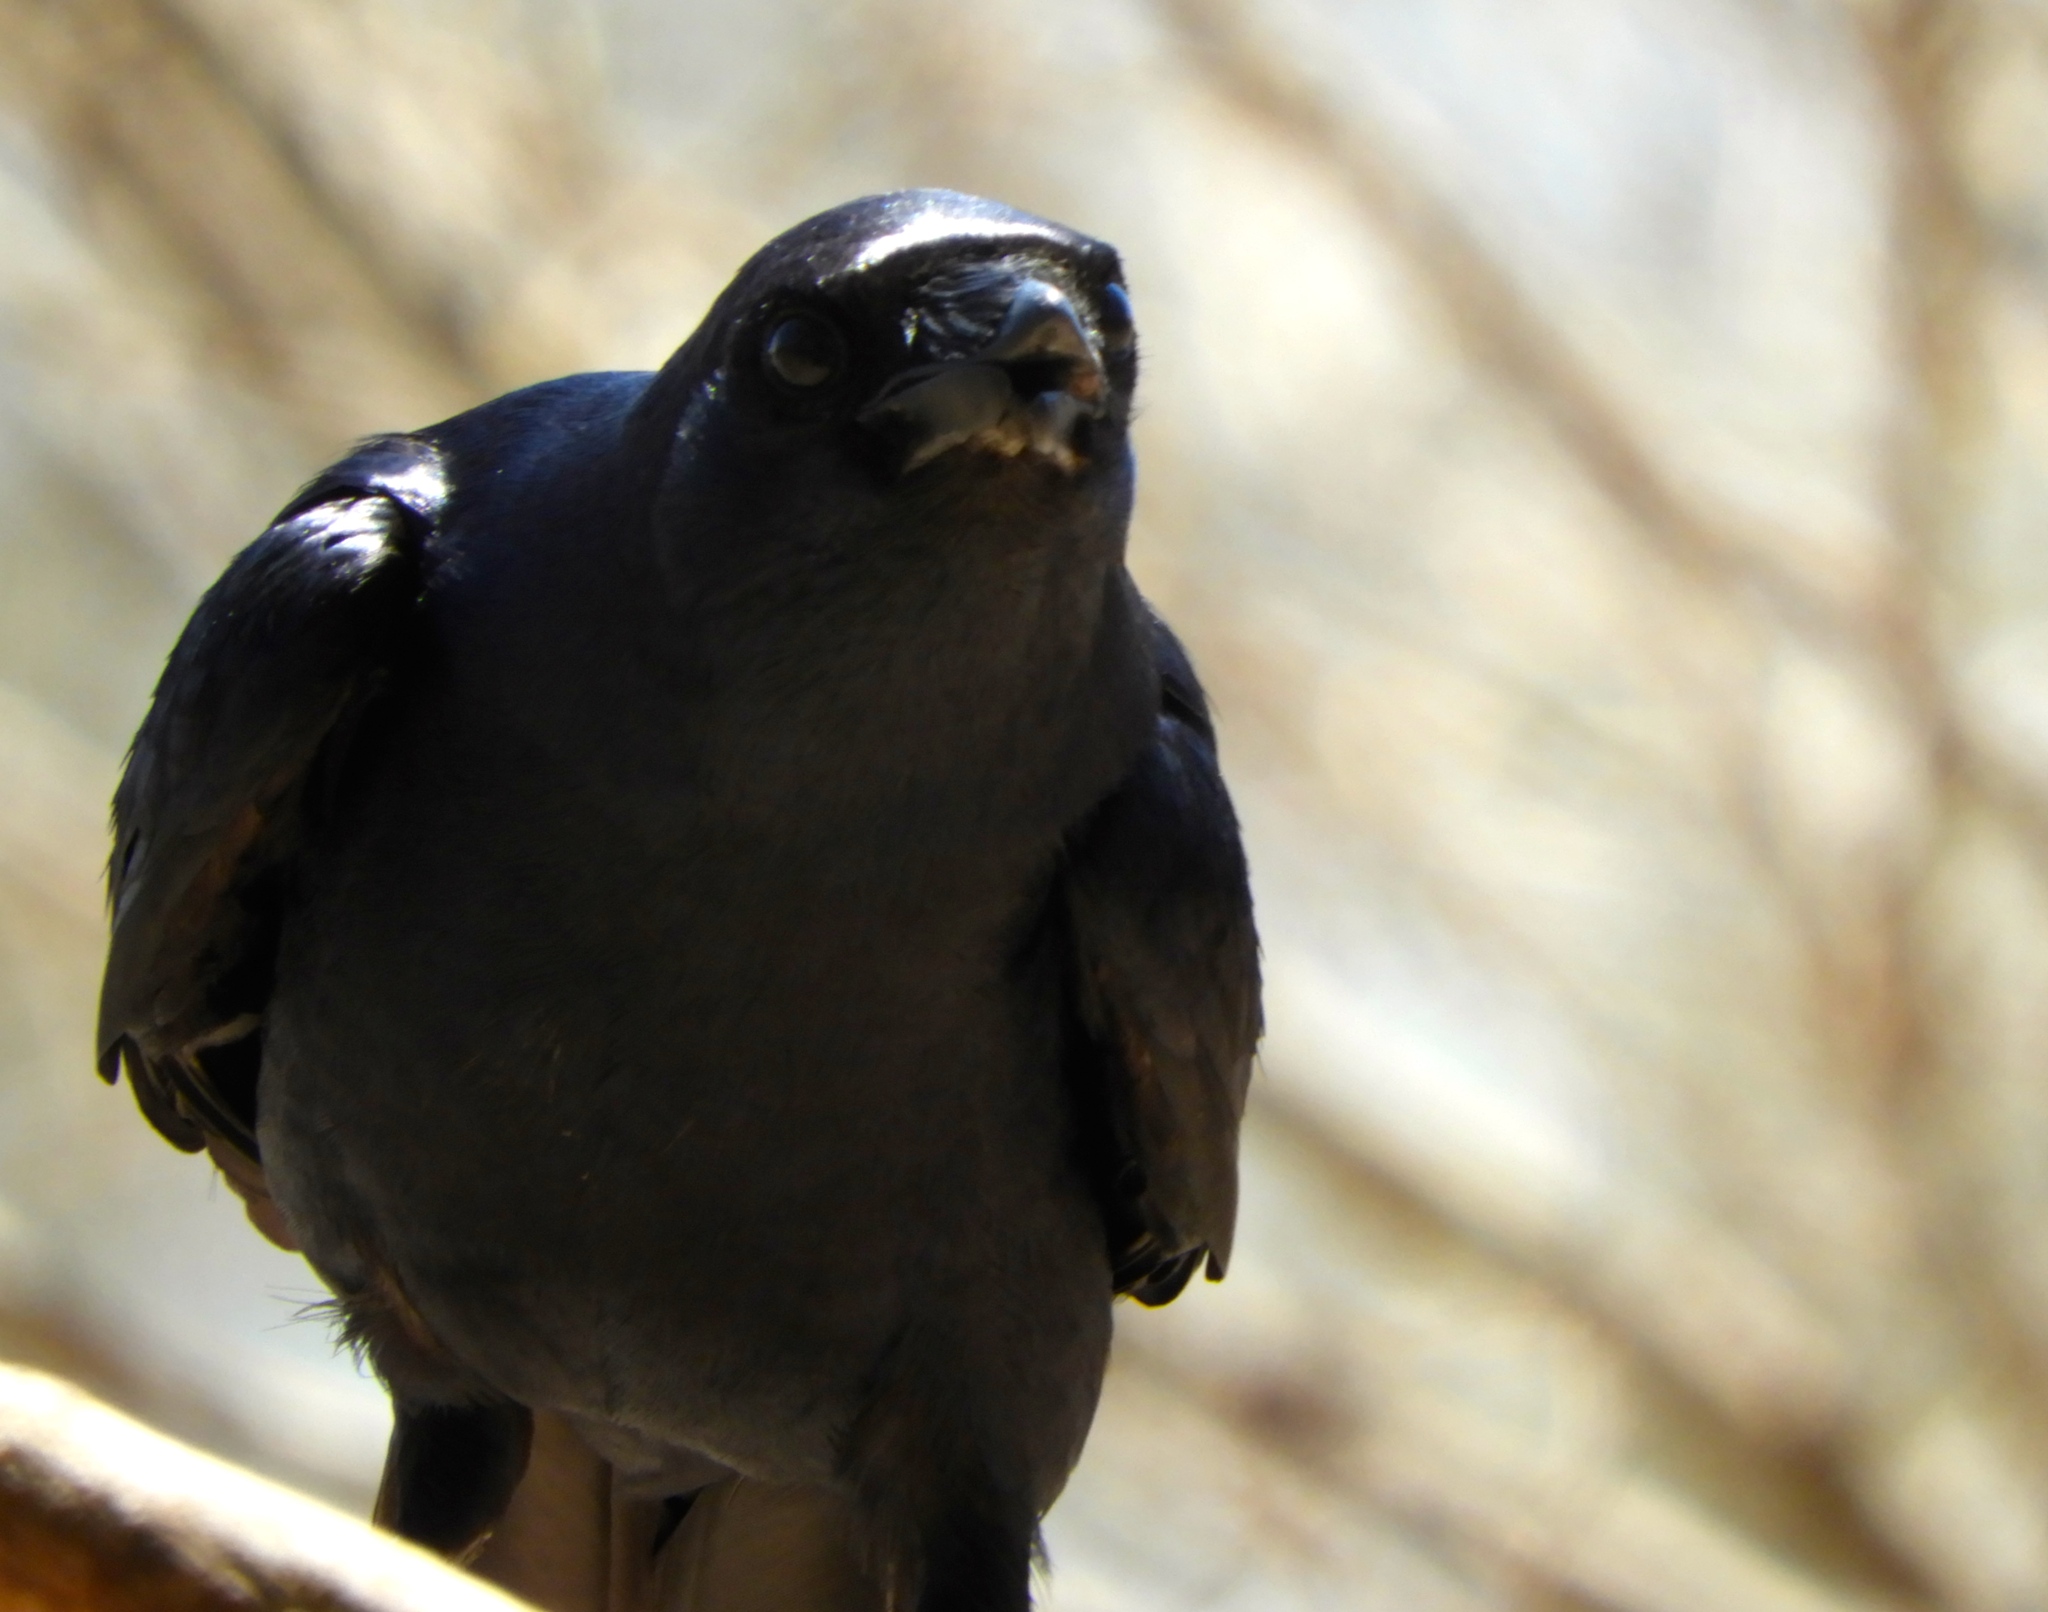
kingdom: Animalia
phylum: Chordata
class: Aves
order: Passeriformes
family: Corvidae
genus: Corvus
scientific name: Corvus sinaloae
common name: Sinaloa crow
